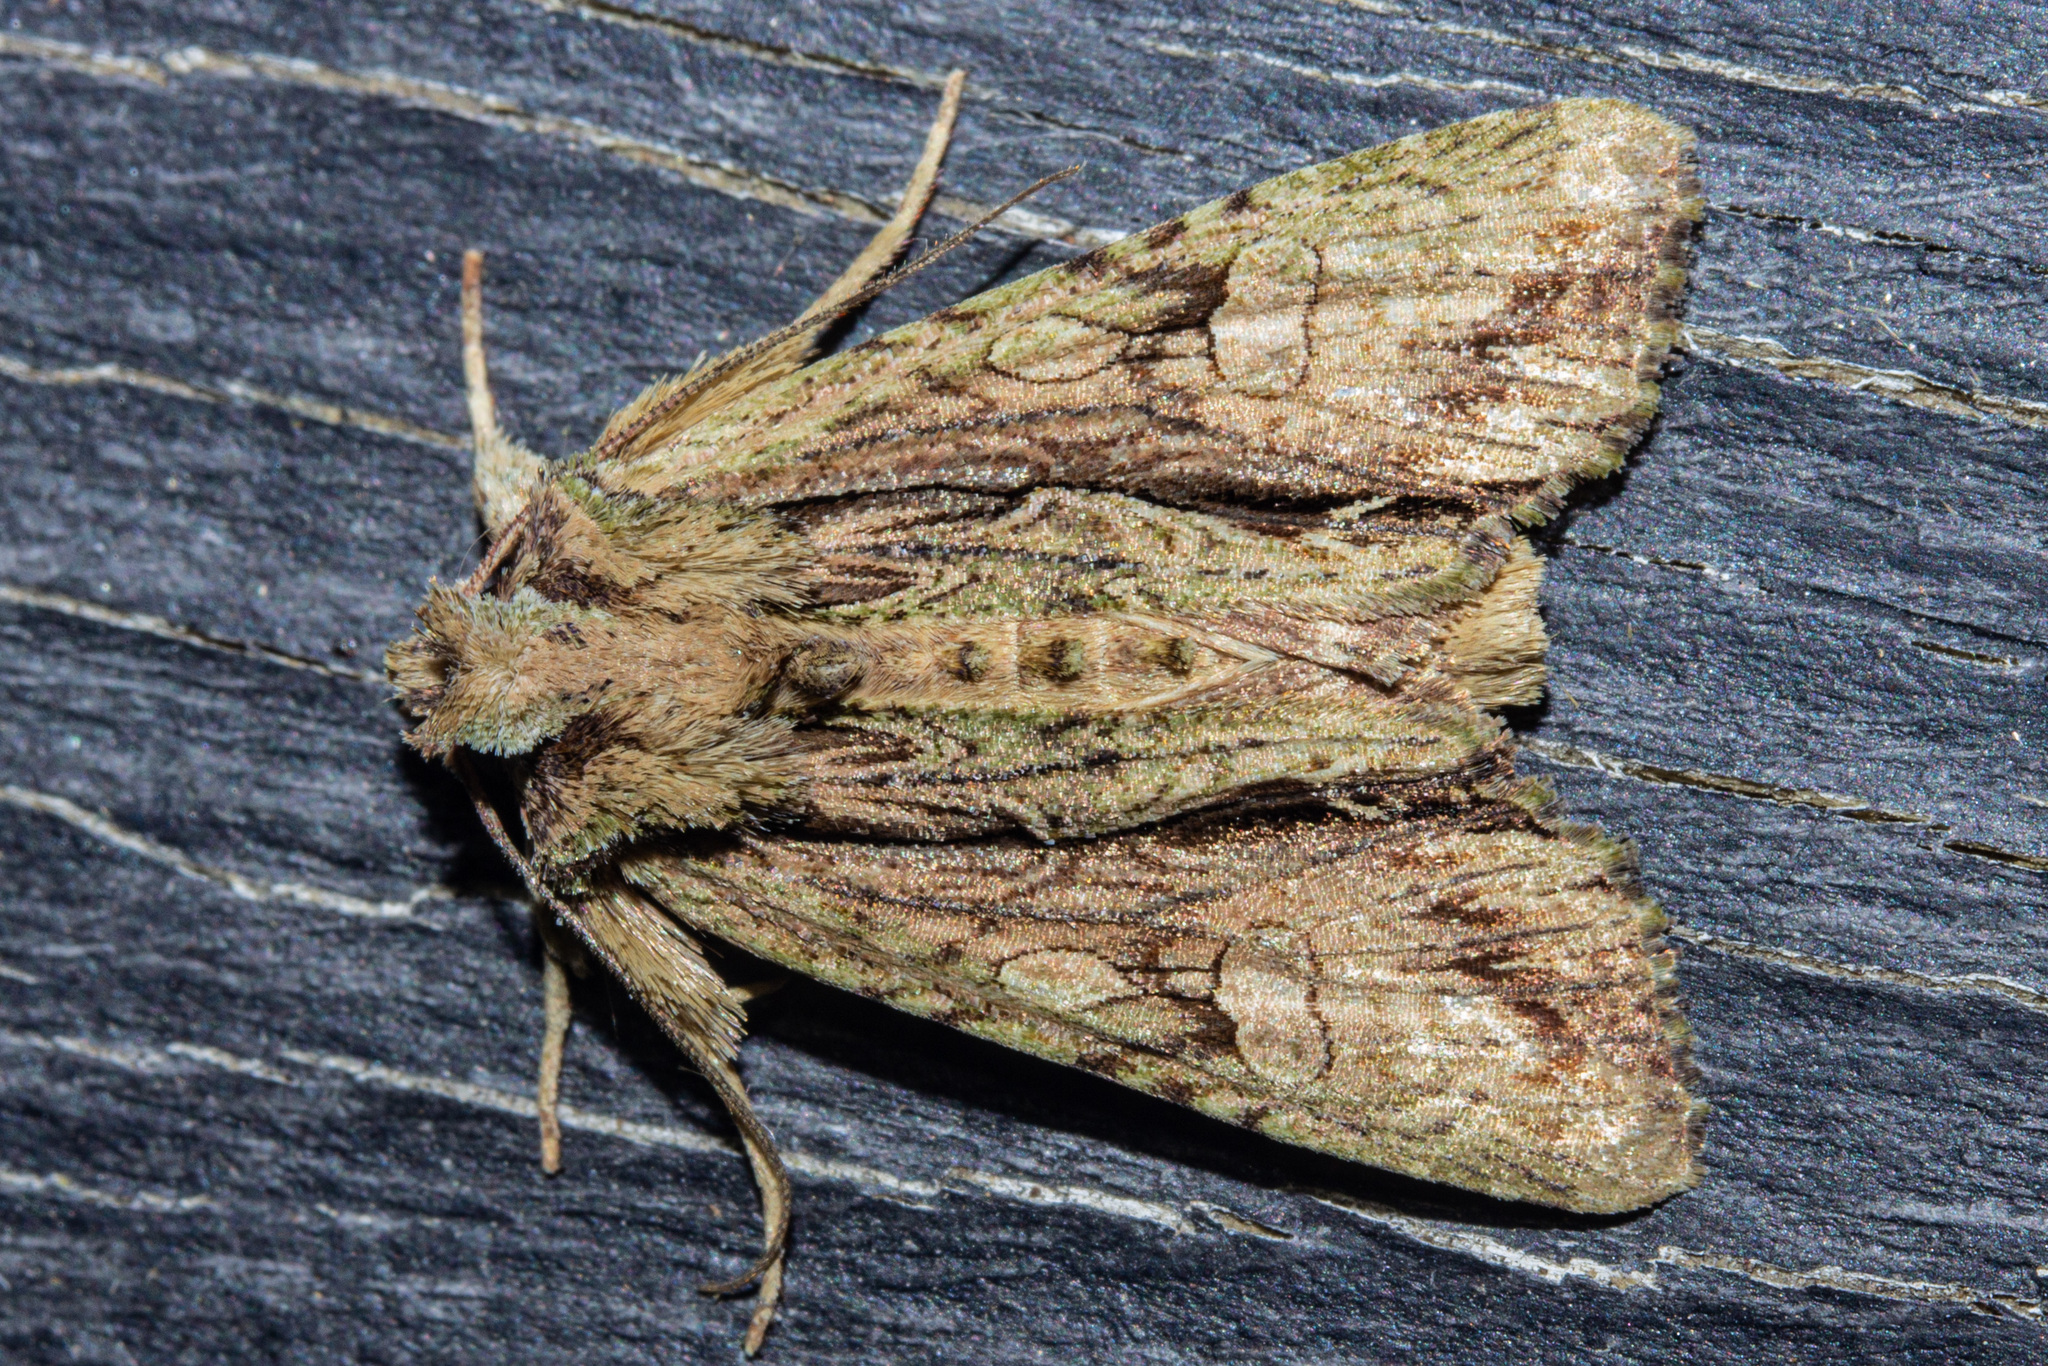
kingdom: Animalia
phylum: Arthropoda
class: Insecta
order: Lepidoptera
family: Noctuidae
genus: Meterana
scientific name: Meterana decorata
